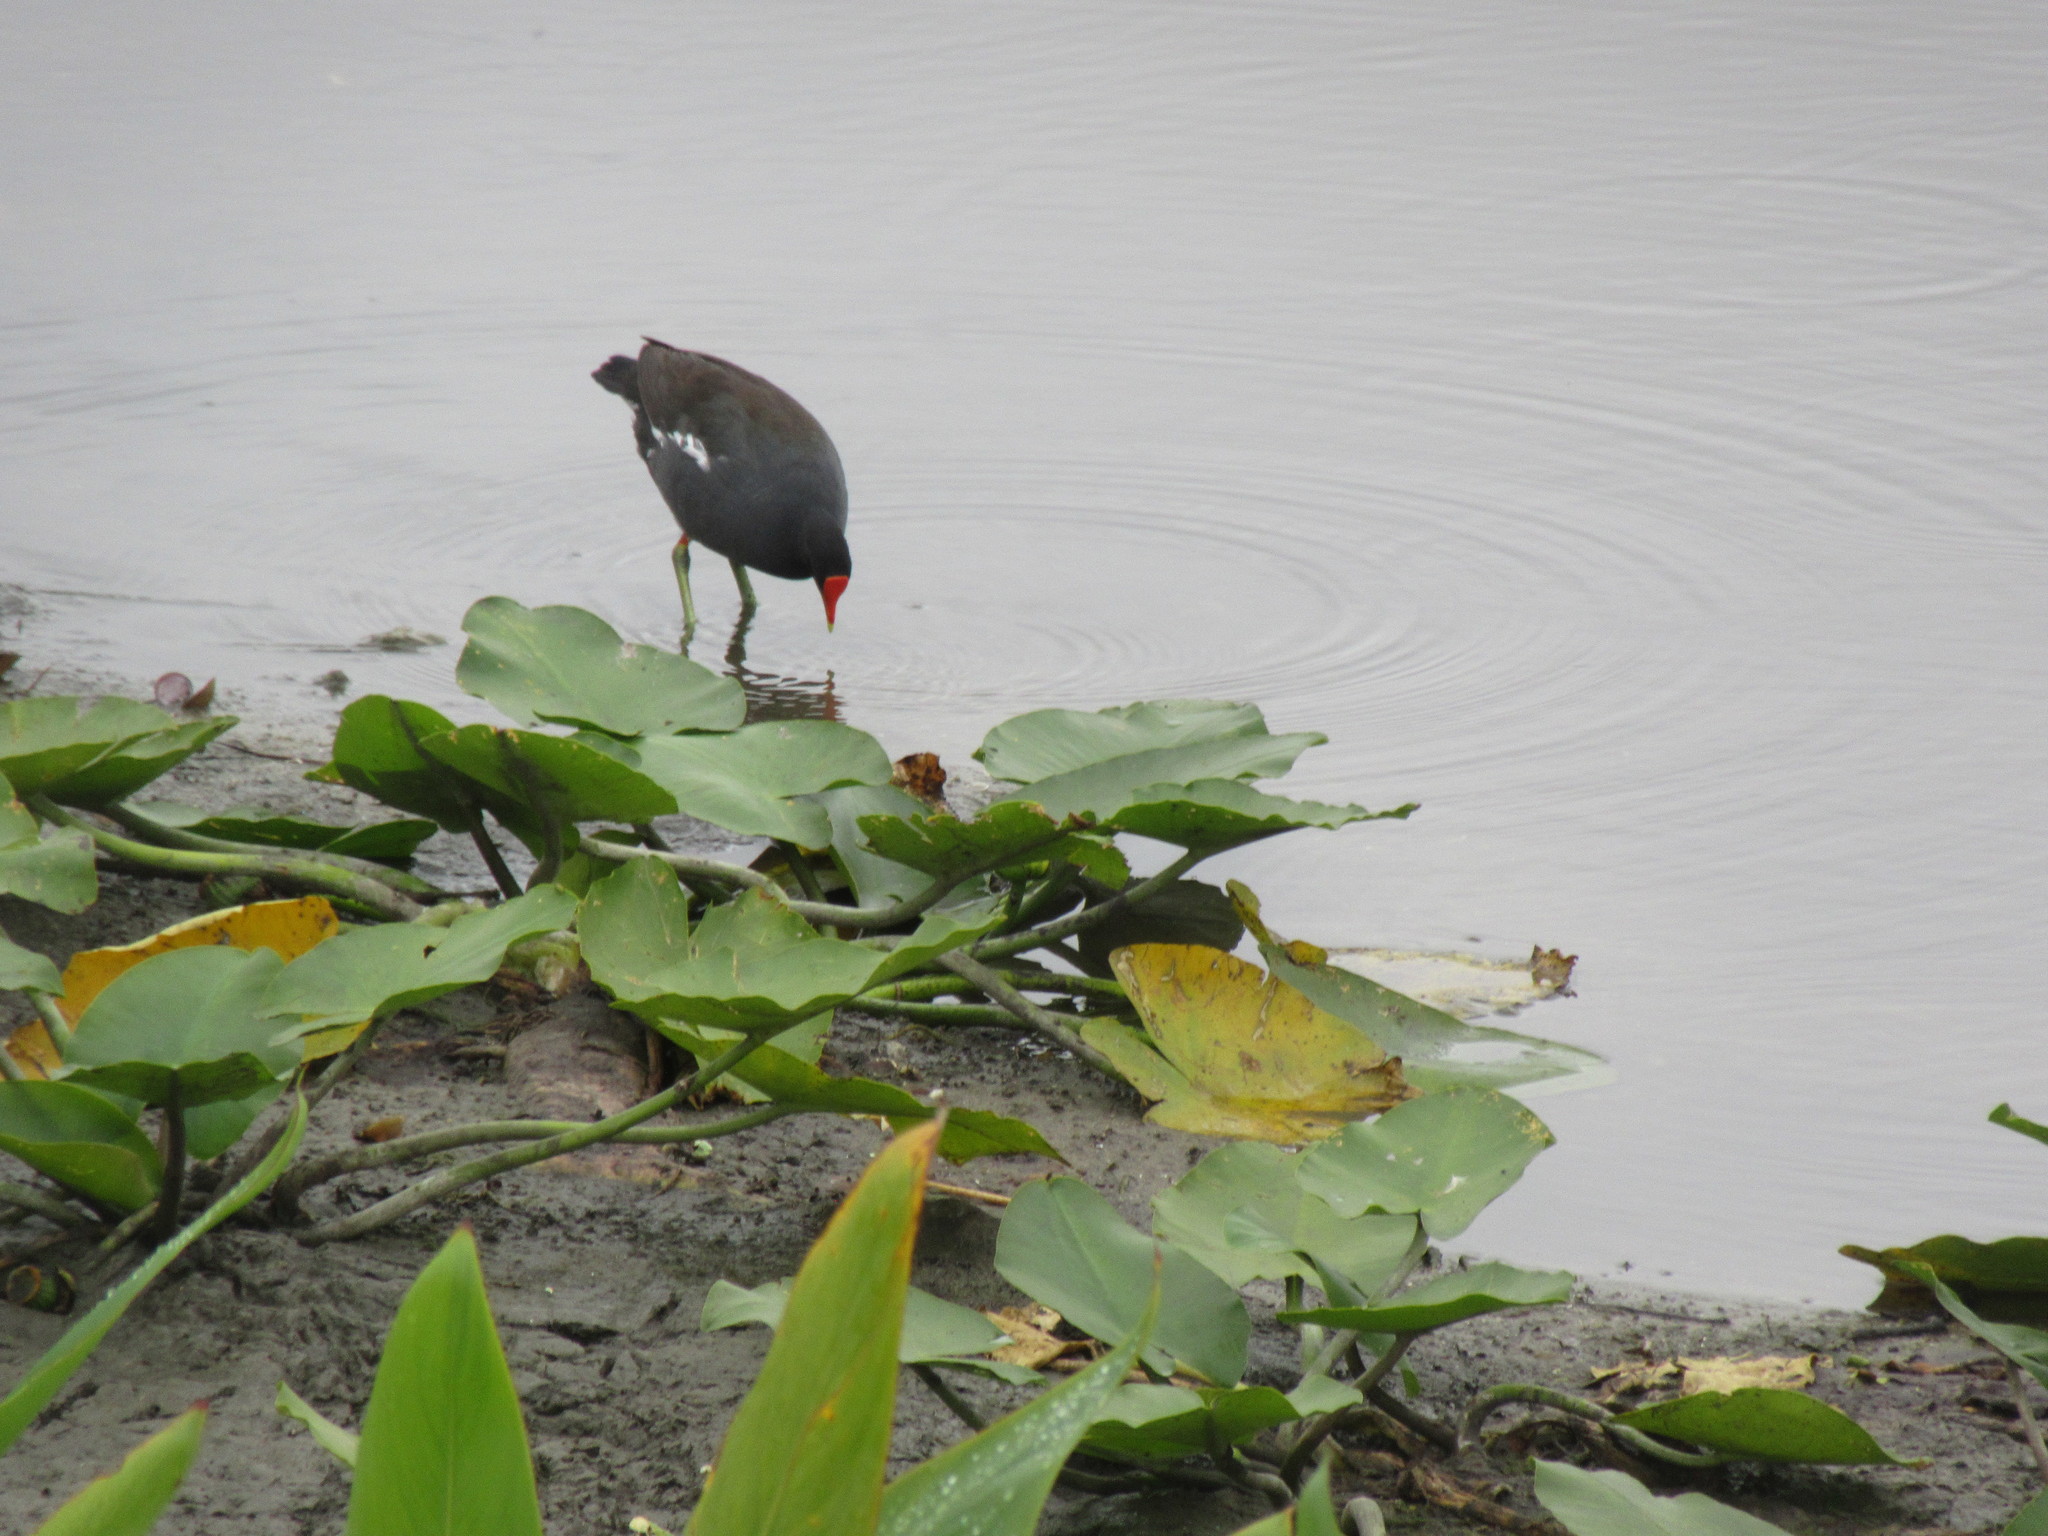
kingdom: Animalia
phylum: Chordata
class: Aves
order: Gruiformes
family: Rallidae
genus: Gallinula
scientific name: Gallinula chloropus
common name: Common moorhen
